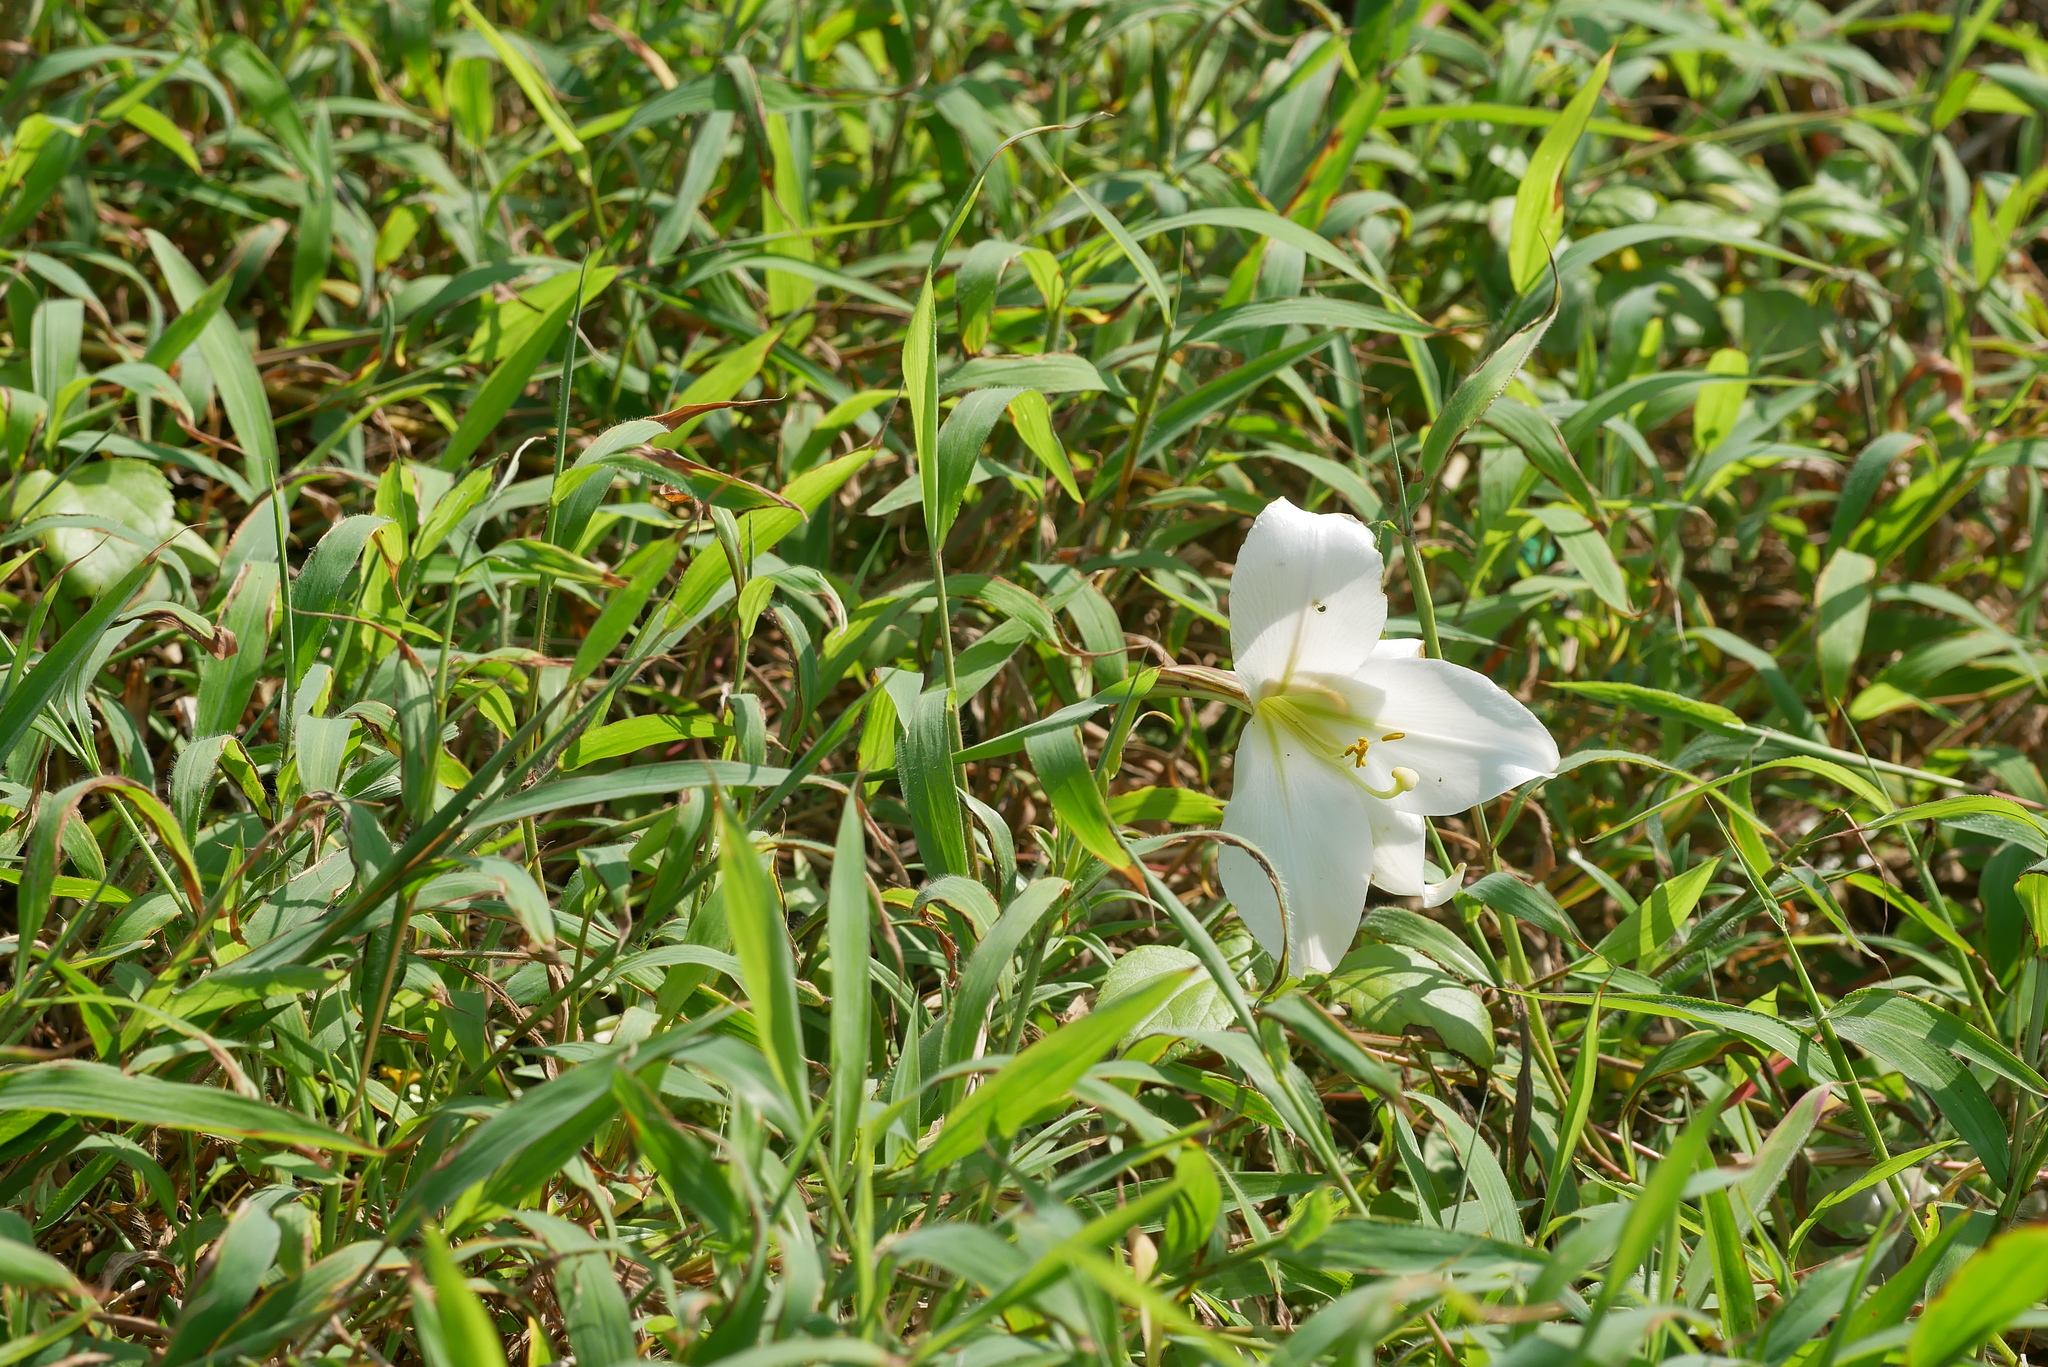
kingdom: Plantae
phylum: Tracheophyta
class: Liliopsida
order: Liliales
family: Liliaceae
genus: Lilium
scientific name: Lilium longiflorum
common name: Easter lily
